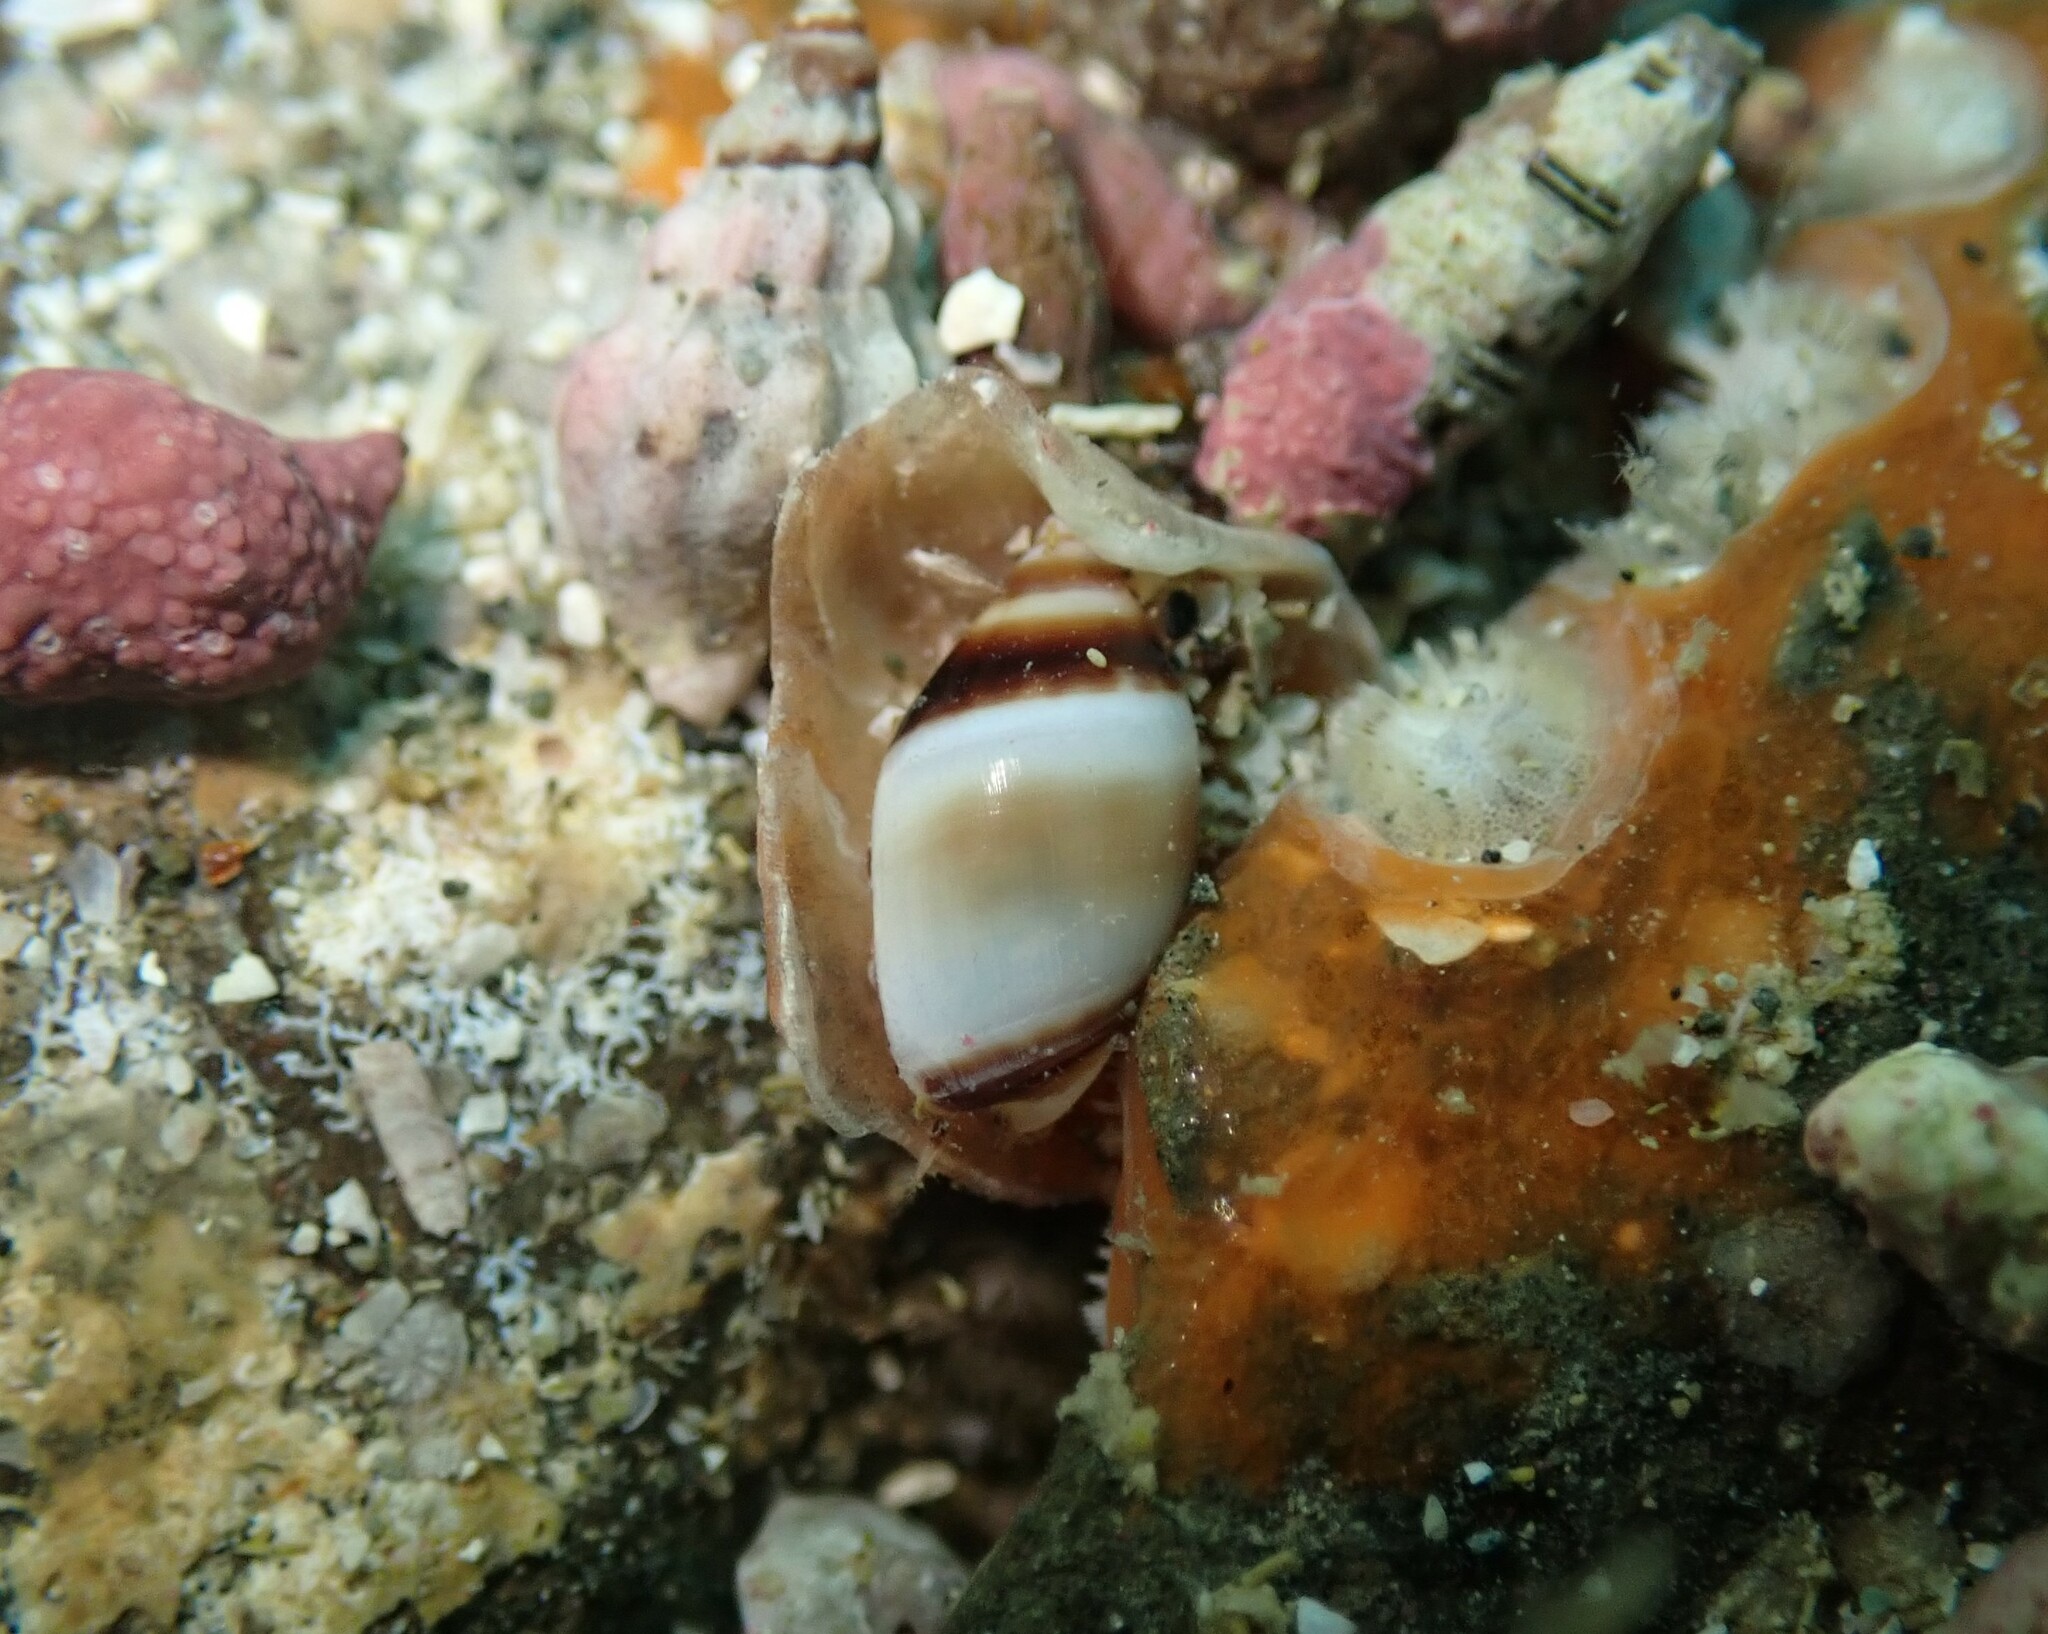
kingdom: Animalia
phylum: Mollusca
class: Gastropoda
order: Neogastropoda
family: Ancillariidae
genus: Amalda
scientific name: Amalda northlandica
